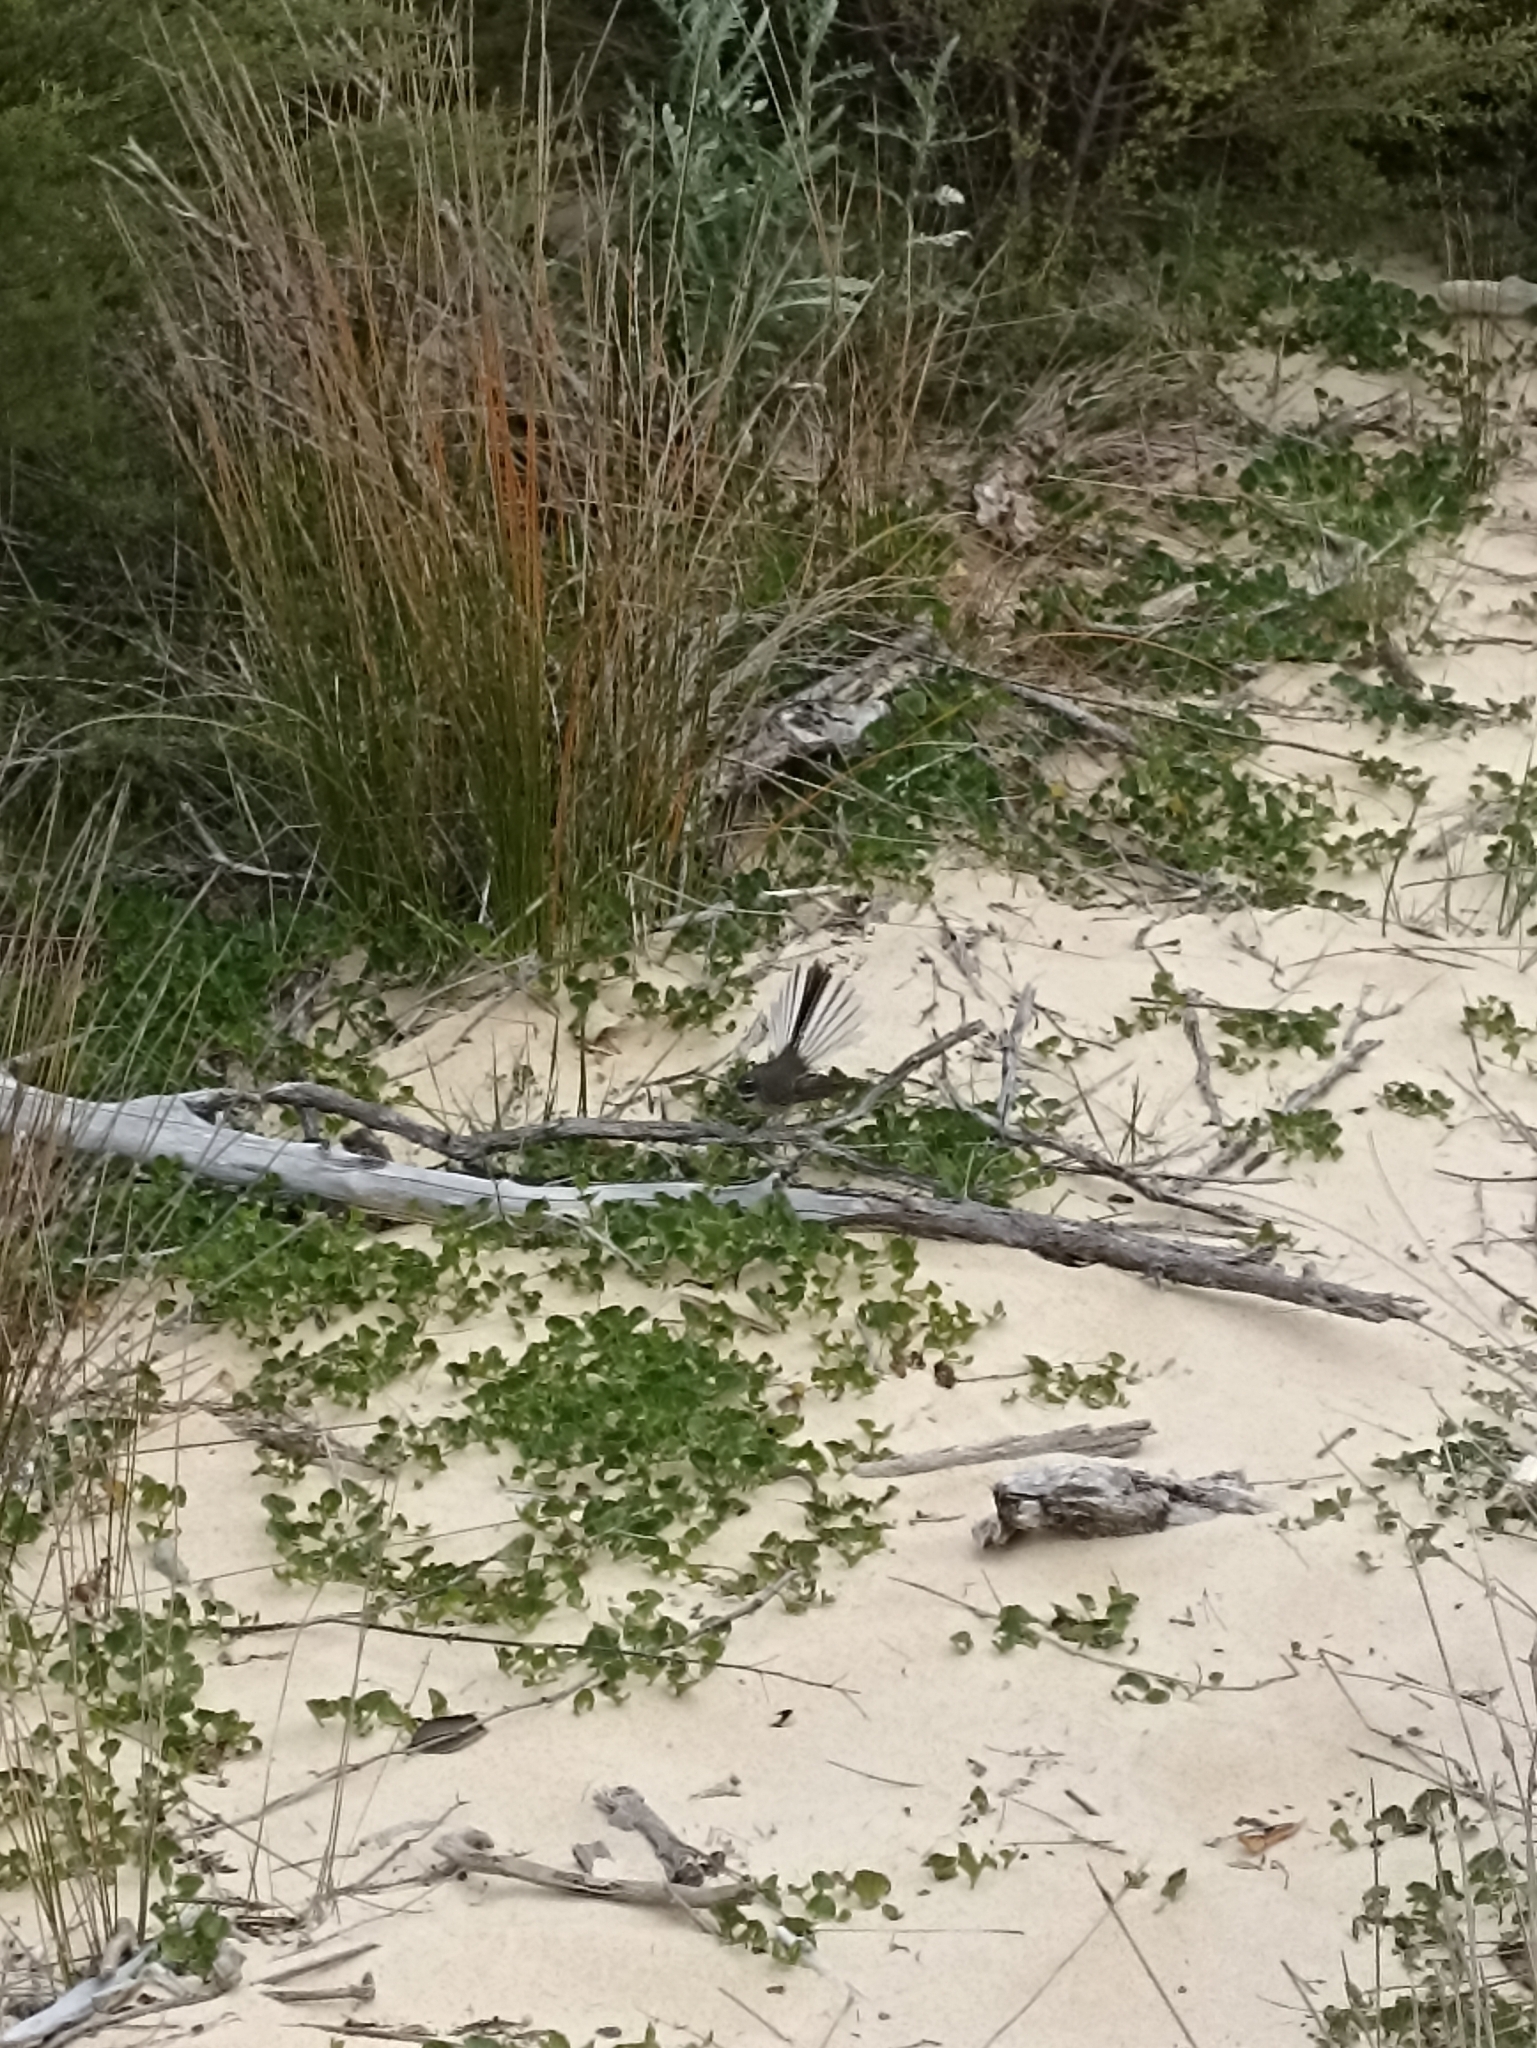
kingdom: Animalia
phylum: Chordata
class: Aves
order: Passeriformes
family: Rhipiduridae
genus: Rhipidura
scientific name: Rhipidura fuliginosa
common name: New zealand fantail
